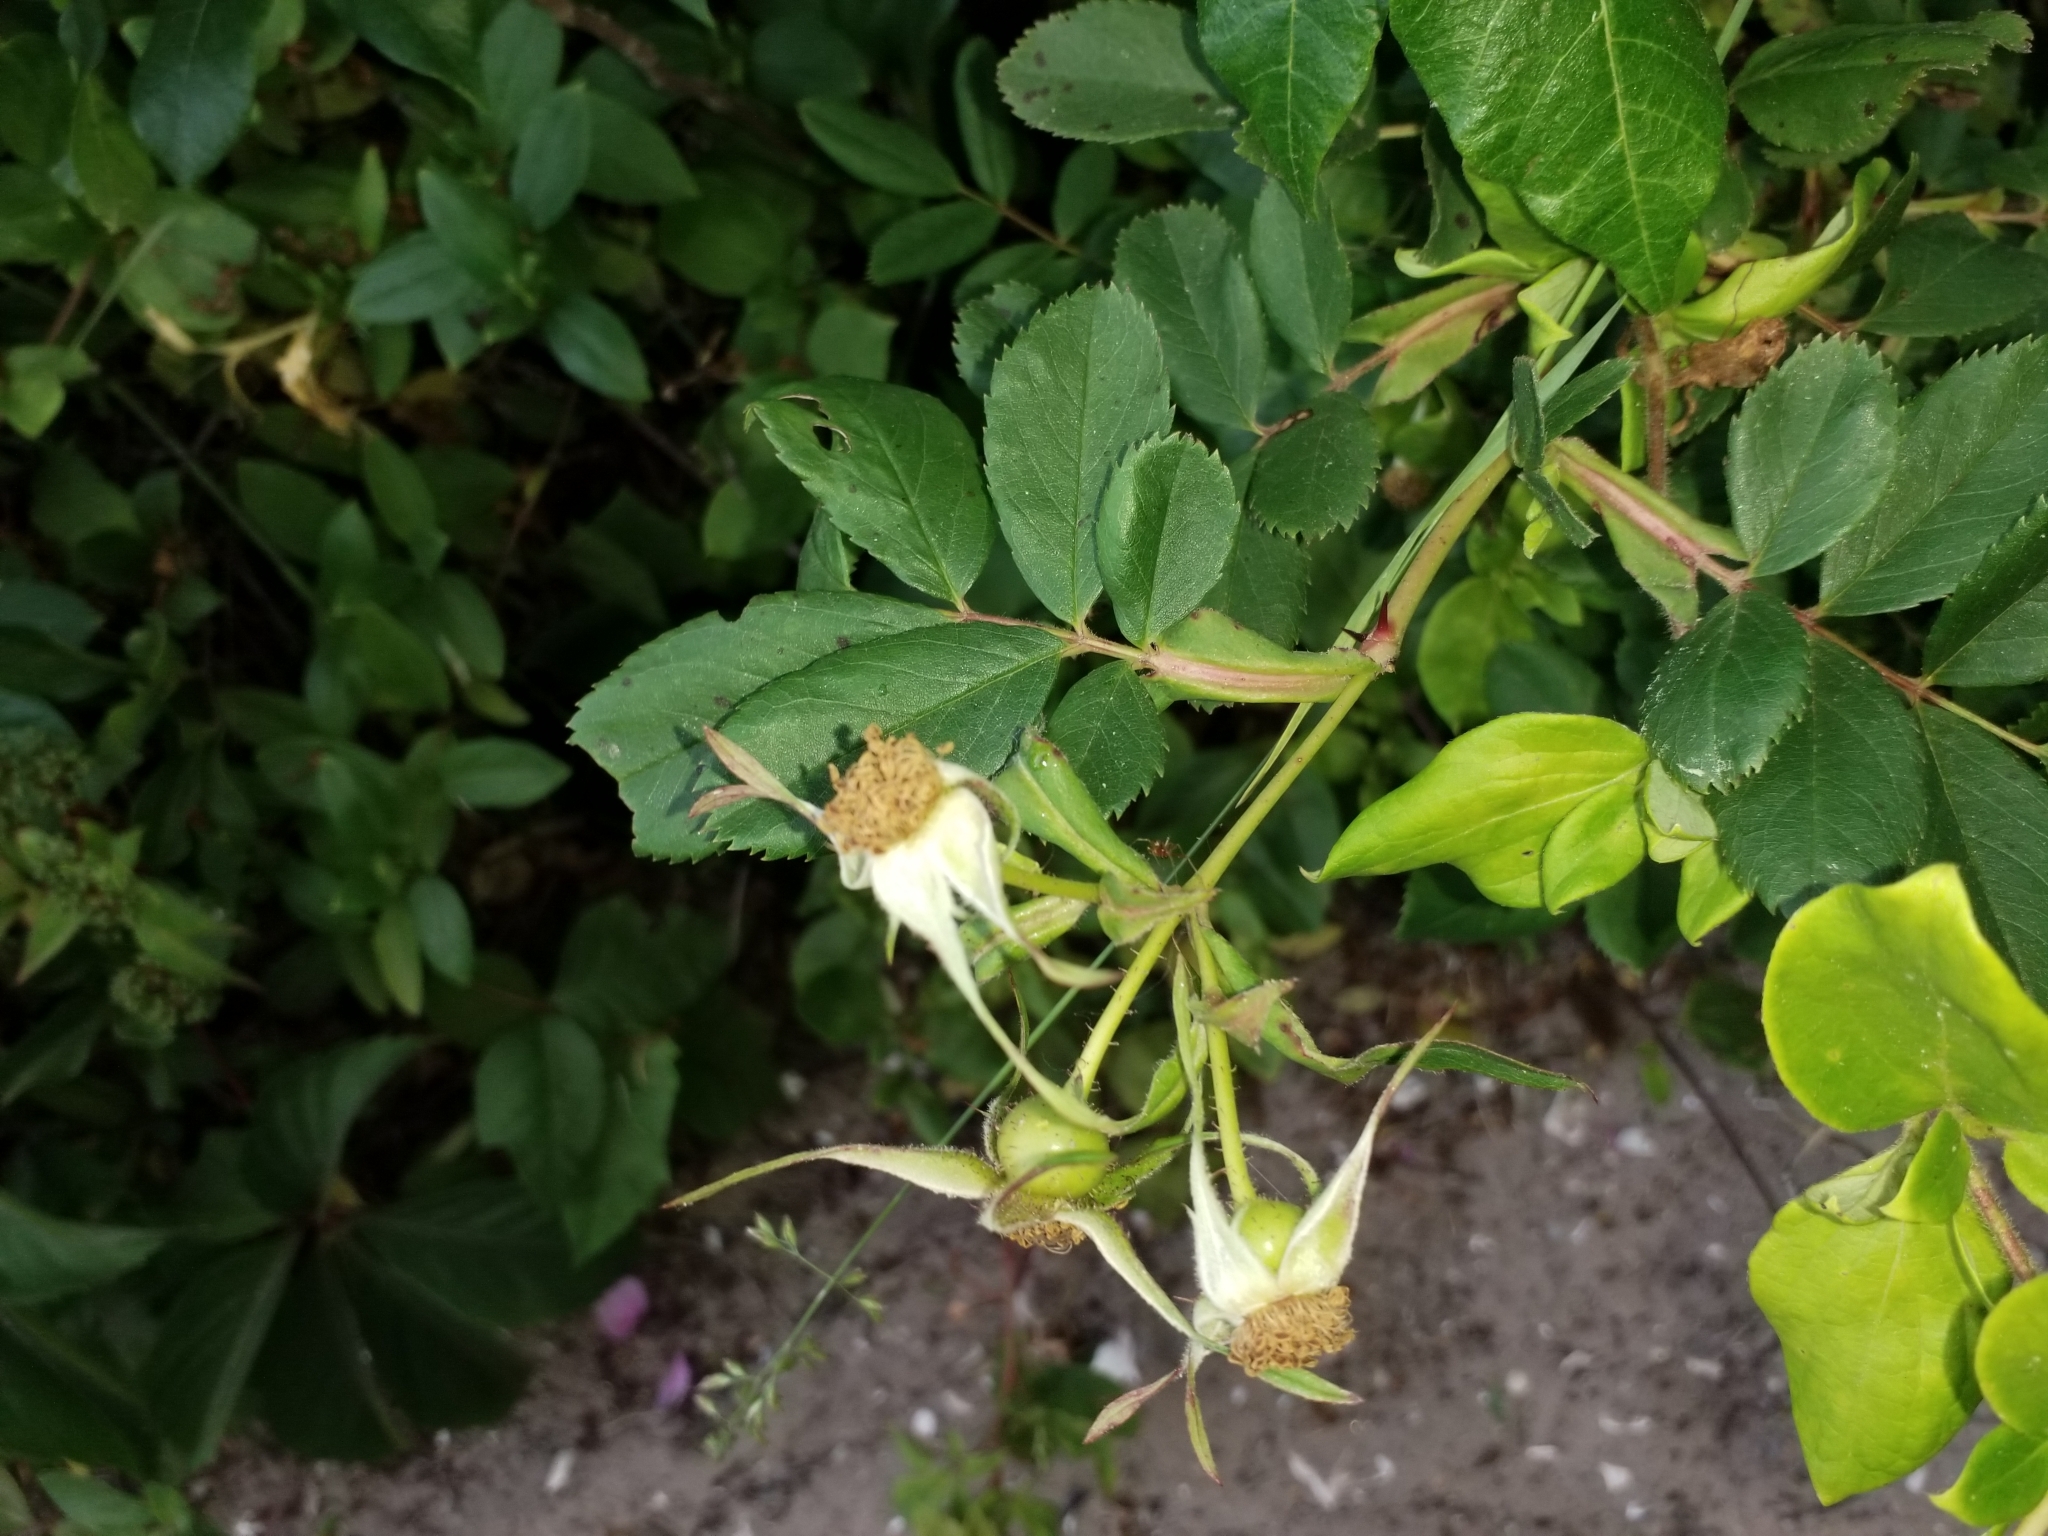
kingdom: Plantae
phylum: Tracheophyta
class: Magnoliopsida
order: Rosales
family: Rosaceae
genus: Rosa
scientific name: Rosa virginiana
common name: Virginian rose
